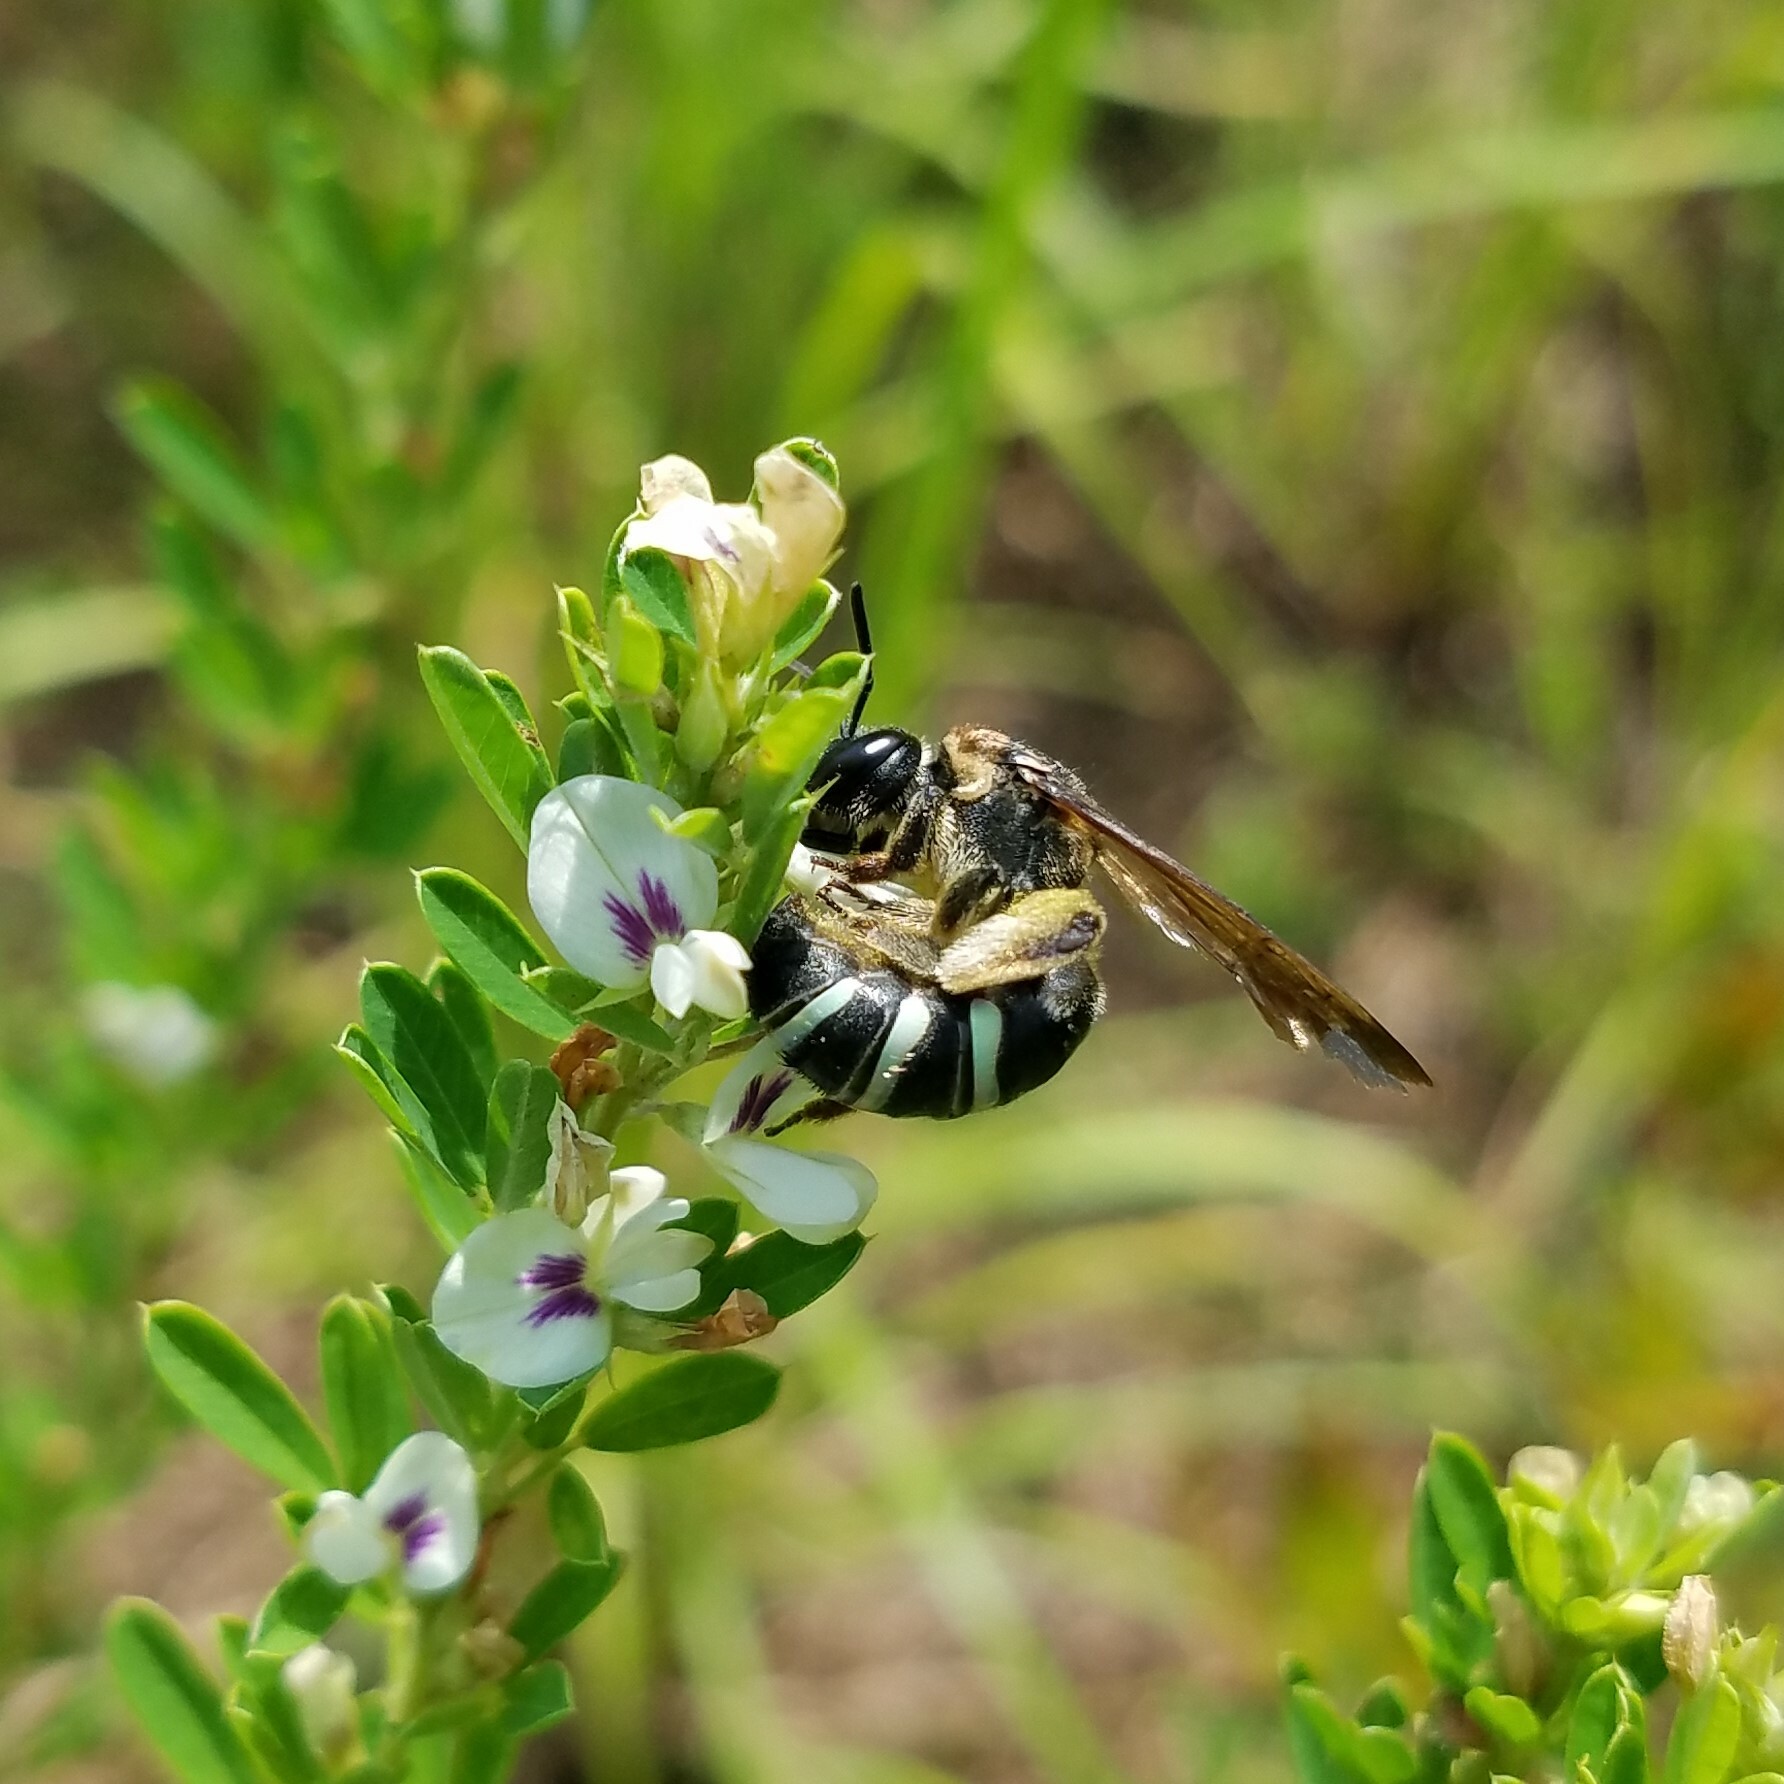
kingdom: Animalia
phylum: Arthropoda
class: Insecta
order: Hymenoptera
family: Halictidae
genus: Nomia
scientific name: Nomia nortoni
